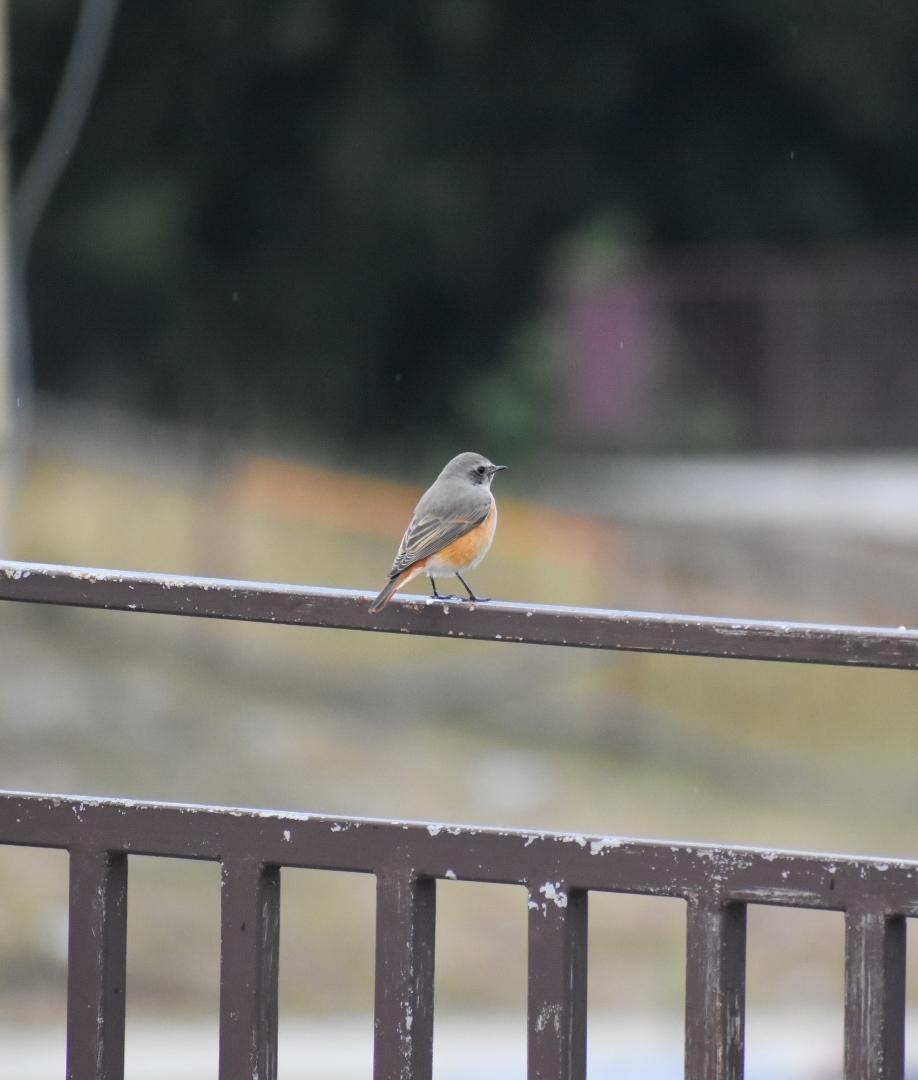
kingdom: Animalia
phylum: Chordata
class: Aves
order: Passeriformes
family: Muscicapidae
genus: Phoenicurus
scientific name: Phoenicurus phoenicurus
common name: Common redstart
